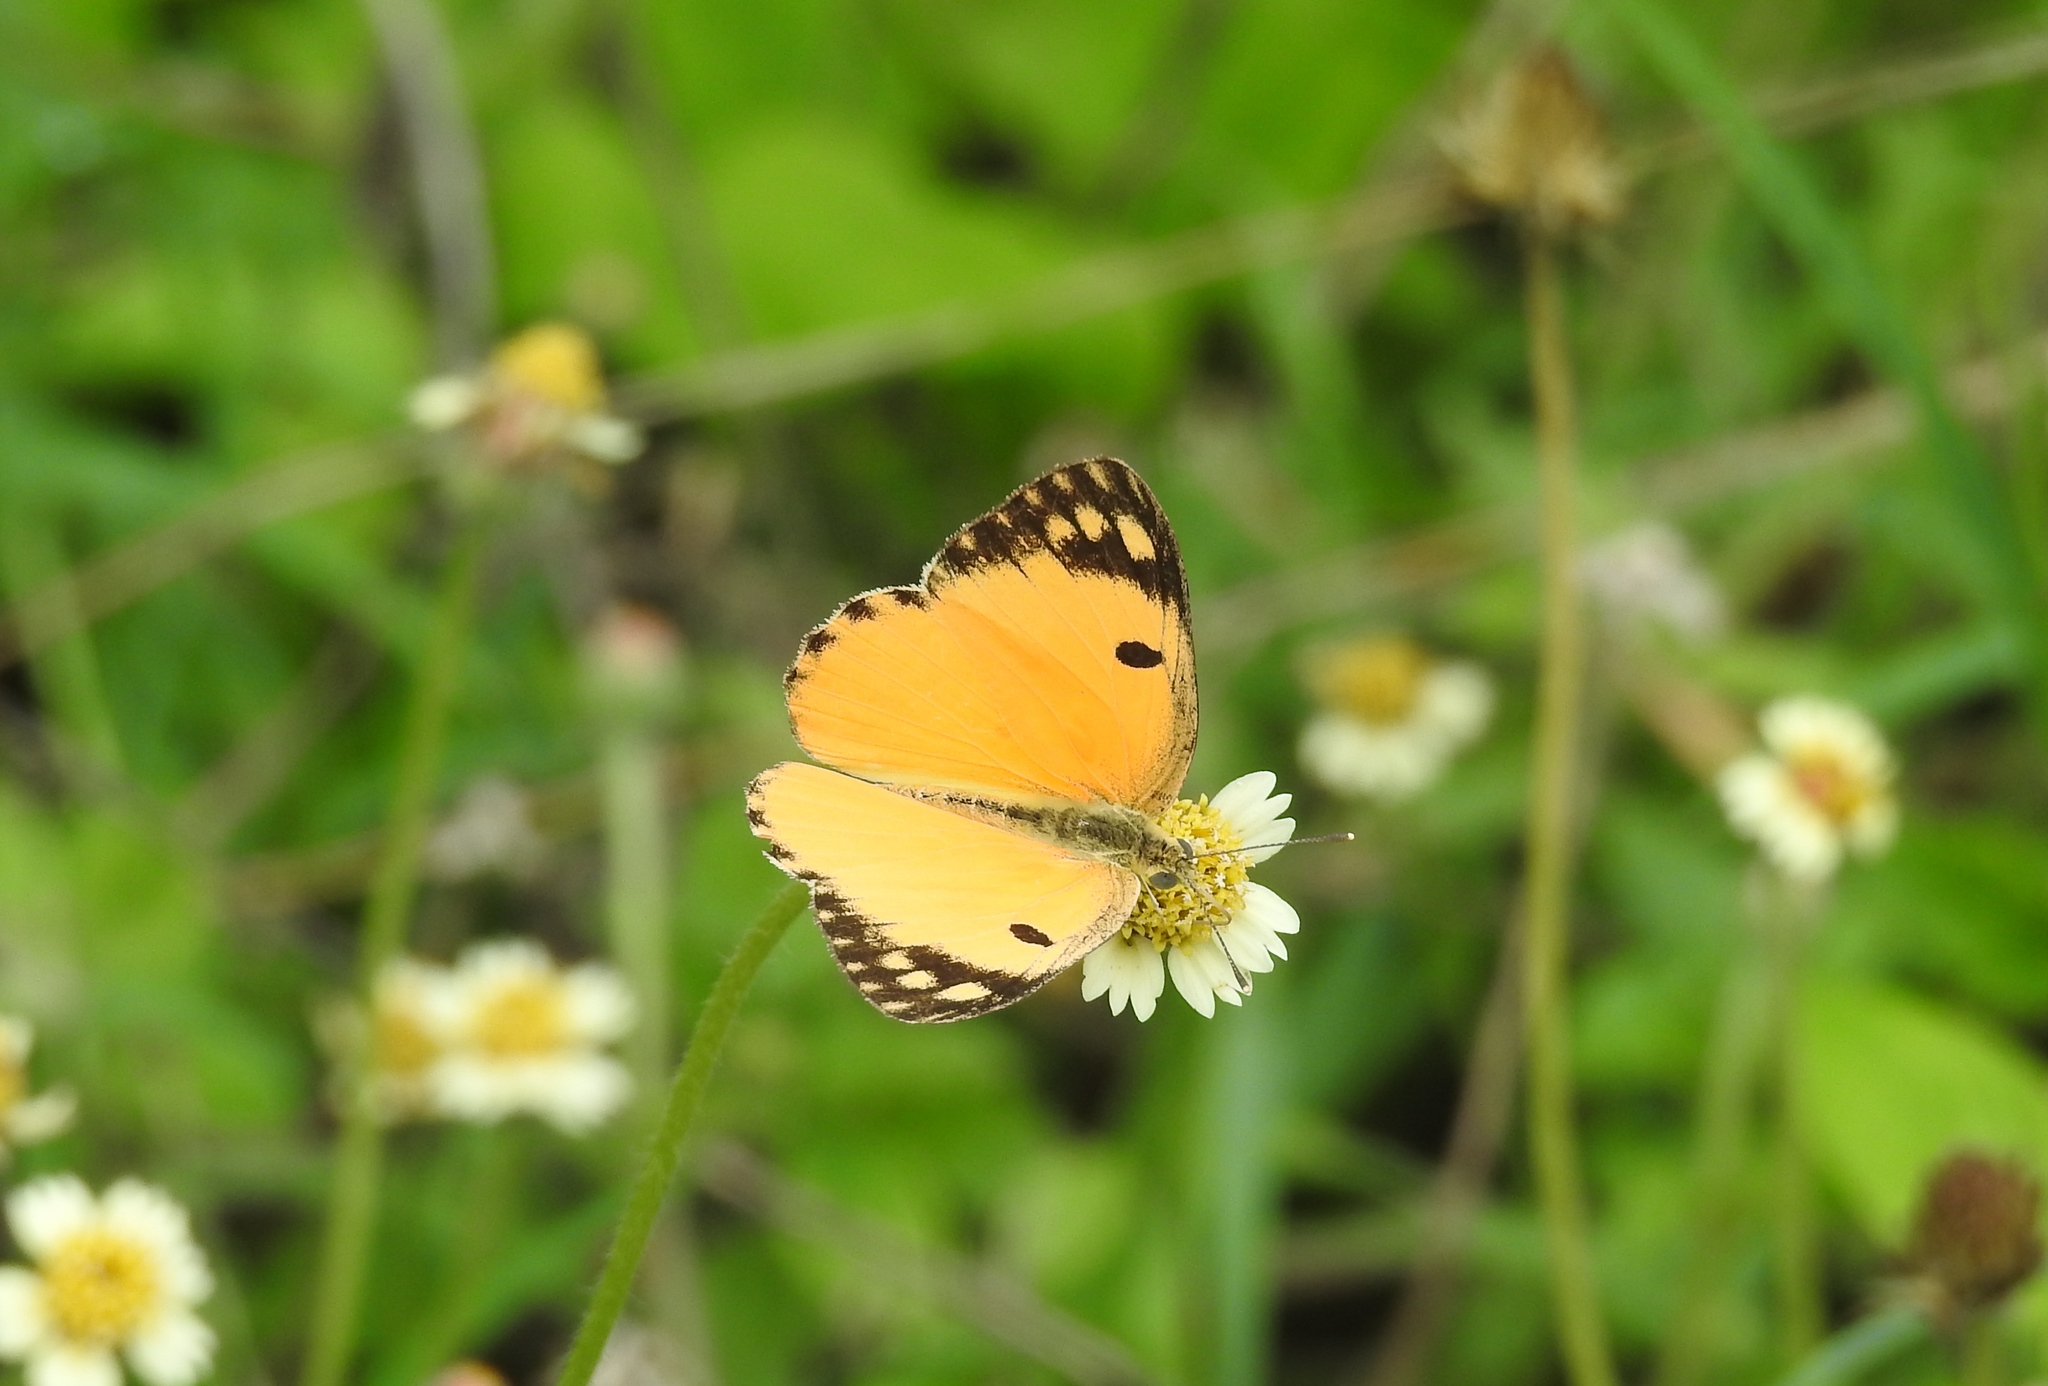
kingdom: Animalia
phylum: Arthropoda
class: Insecta
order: Lepidoptera
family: Pieridae
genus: Colotis
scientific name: Colotis fausta
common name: Large salmon arab
